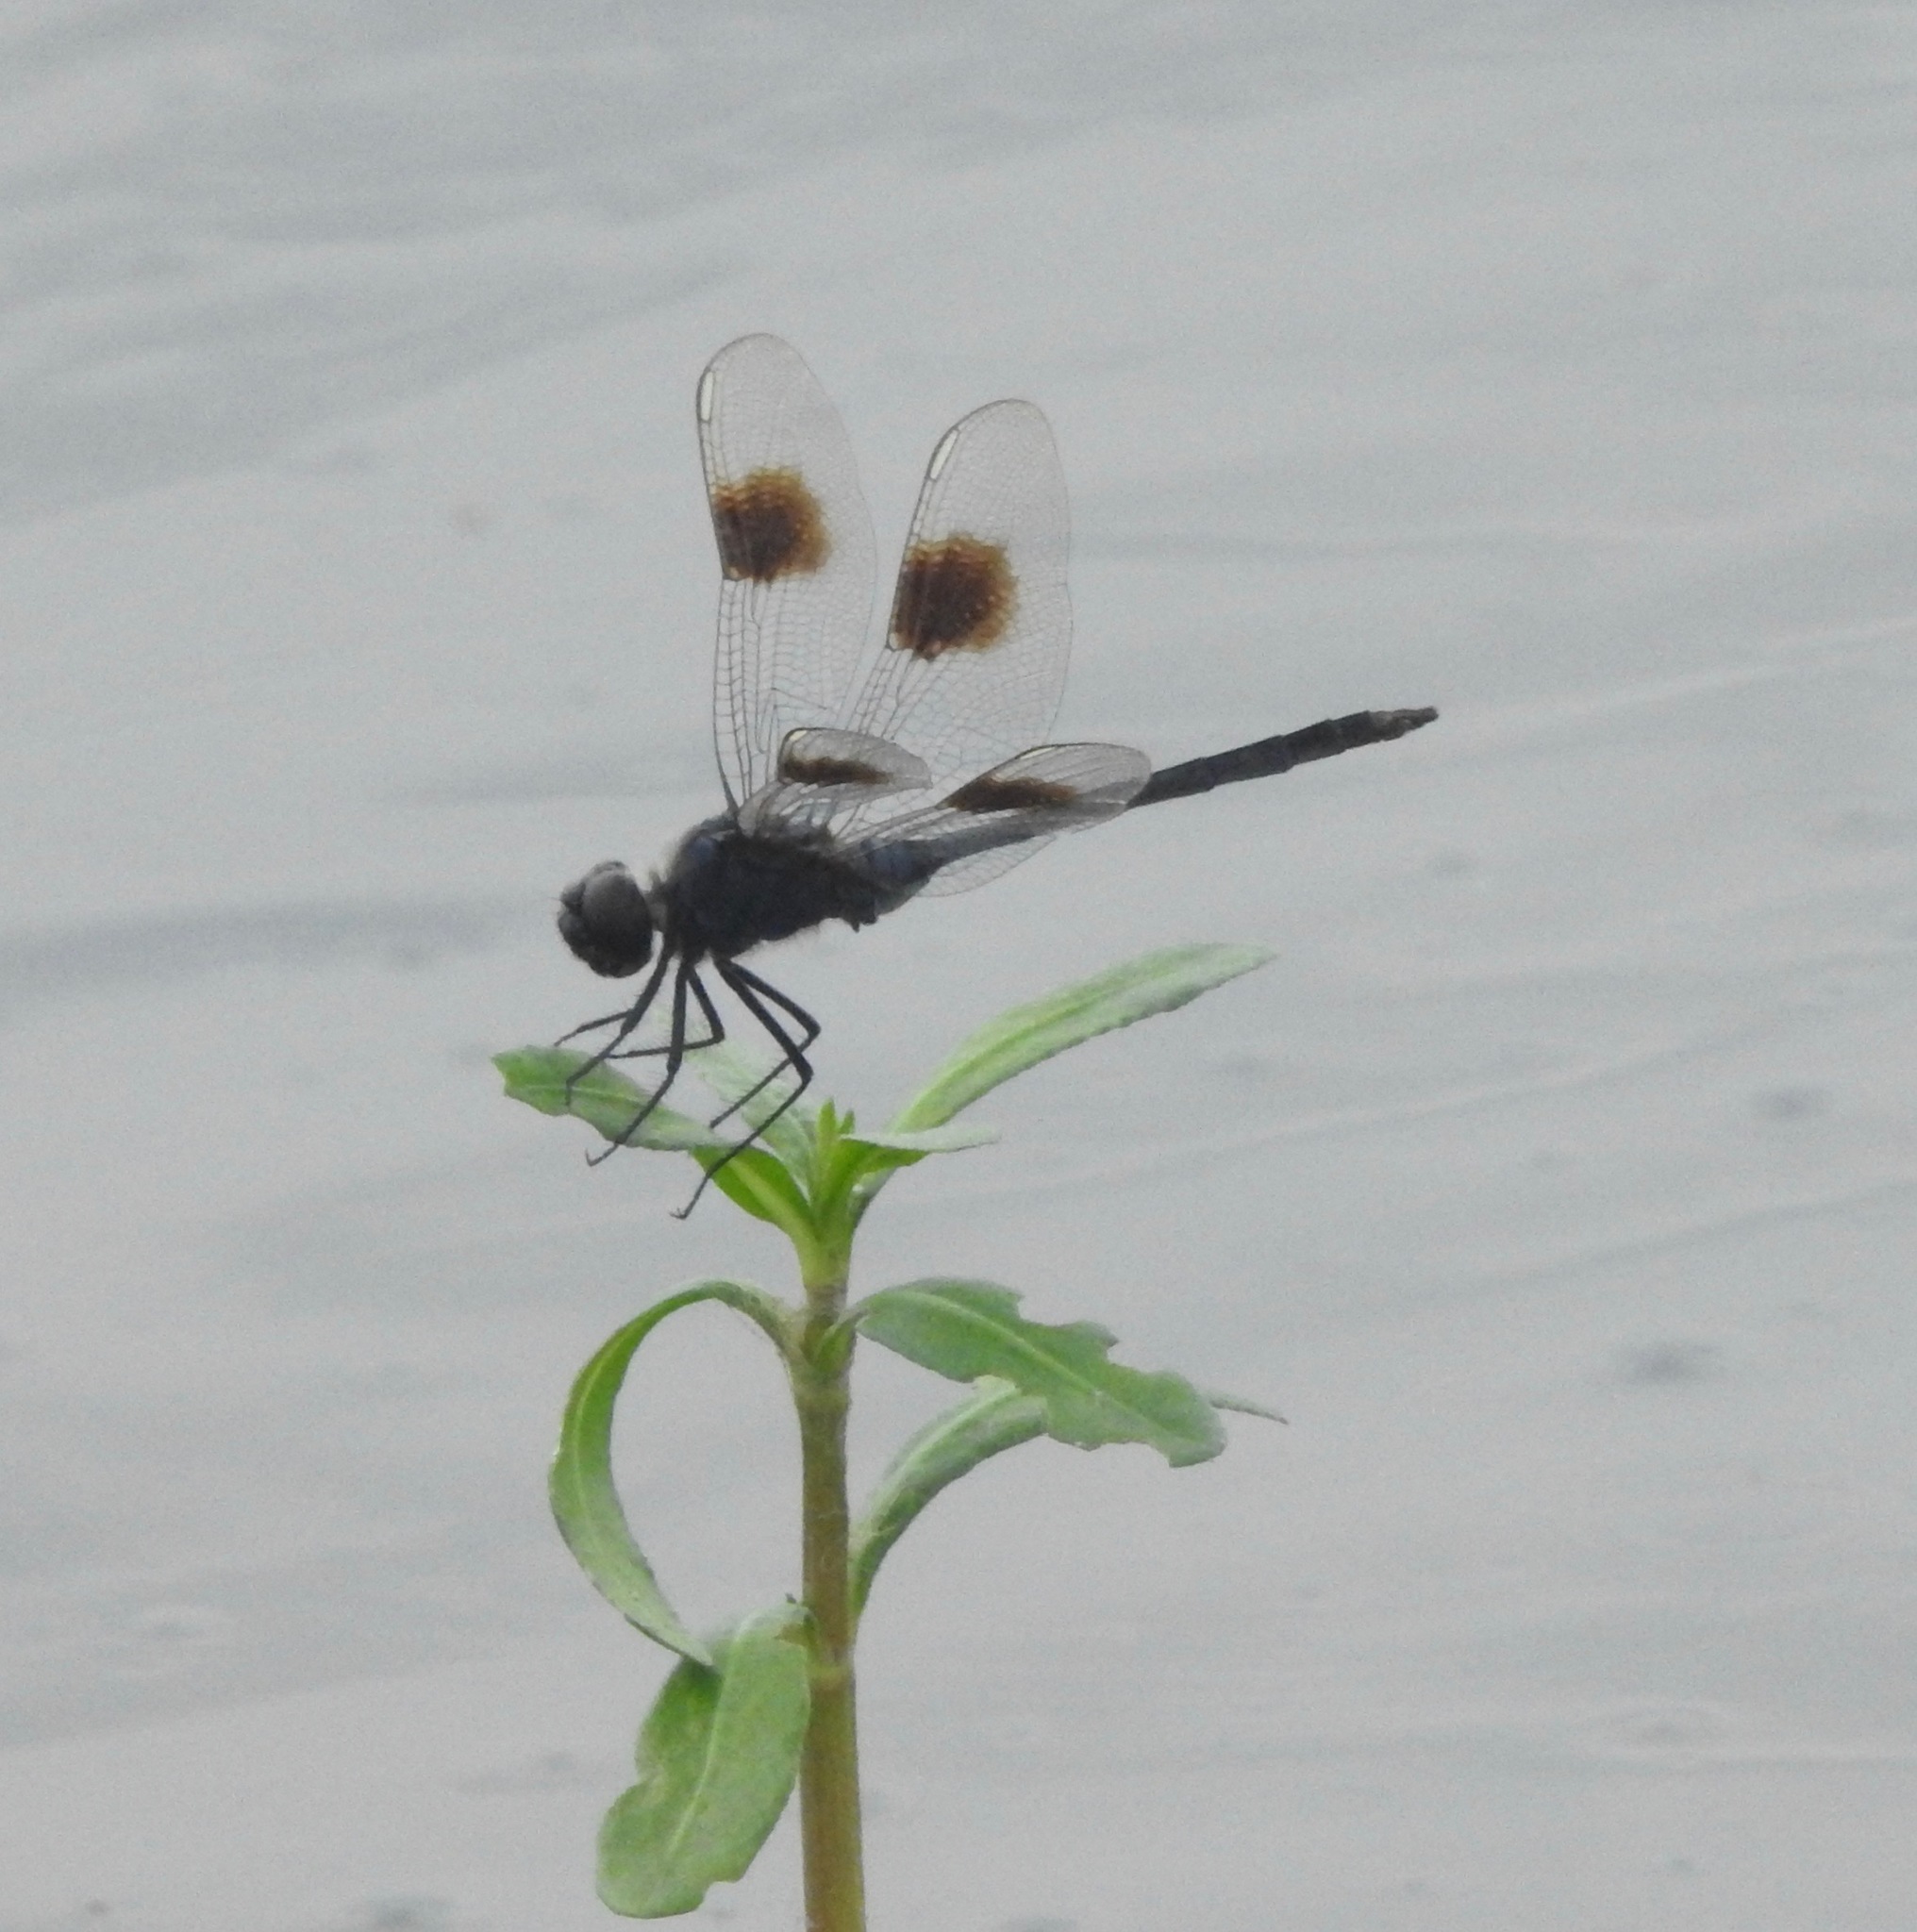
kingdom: Animalia
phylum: Arthropoda
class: Insecta
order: Odonata
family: Libellulidae
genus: Brachymesia
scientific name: Brachymesia gravida
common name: Four-spotted pennant
